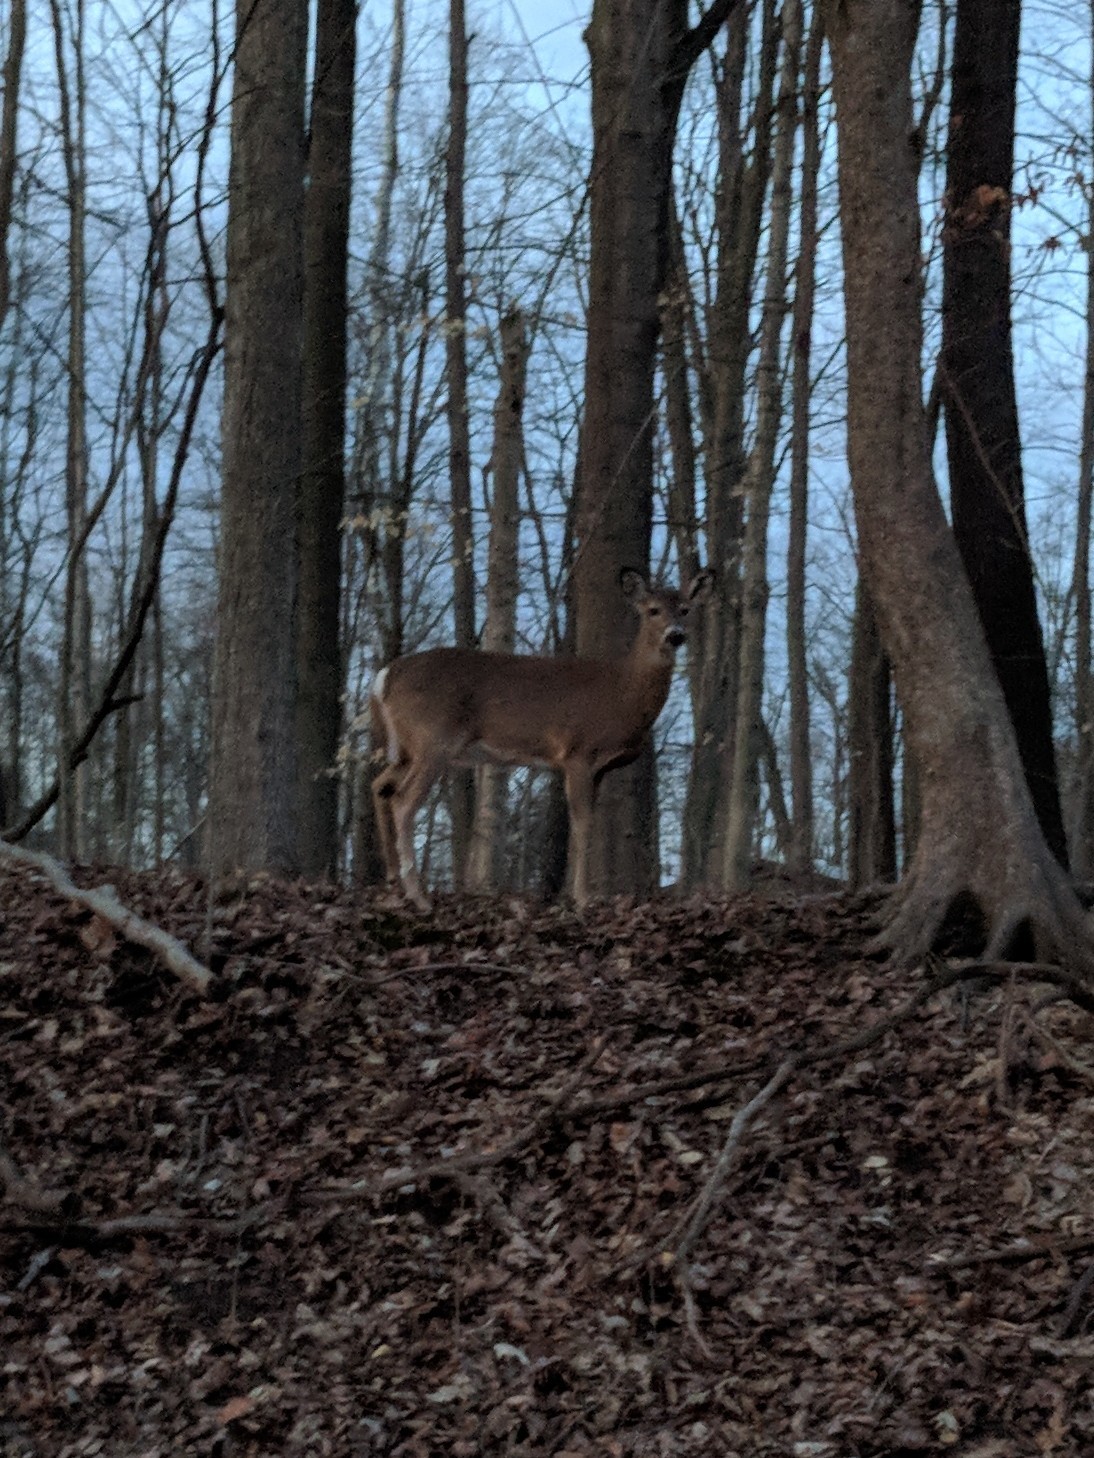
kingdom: Animalia
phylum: Chordata
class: Mammalia
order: Artiodactyla
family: Cervidae
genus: Odocoileus
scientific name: Odocoileus virginianus
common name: White-tailed deer
